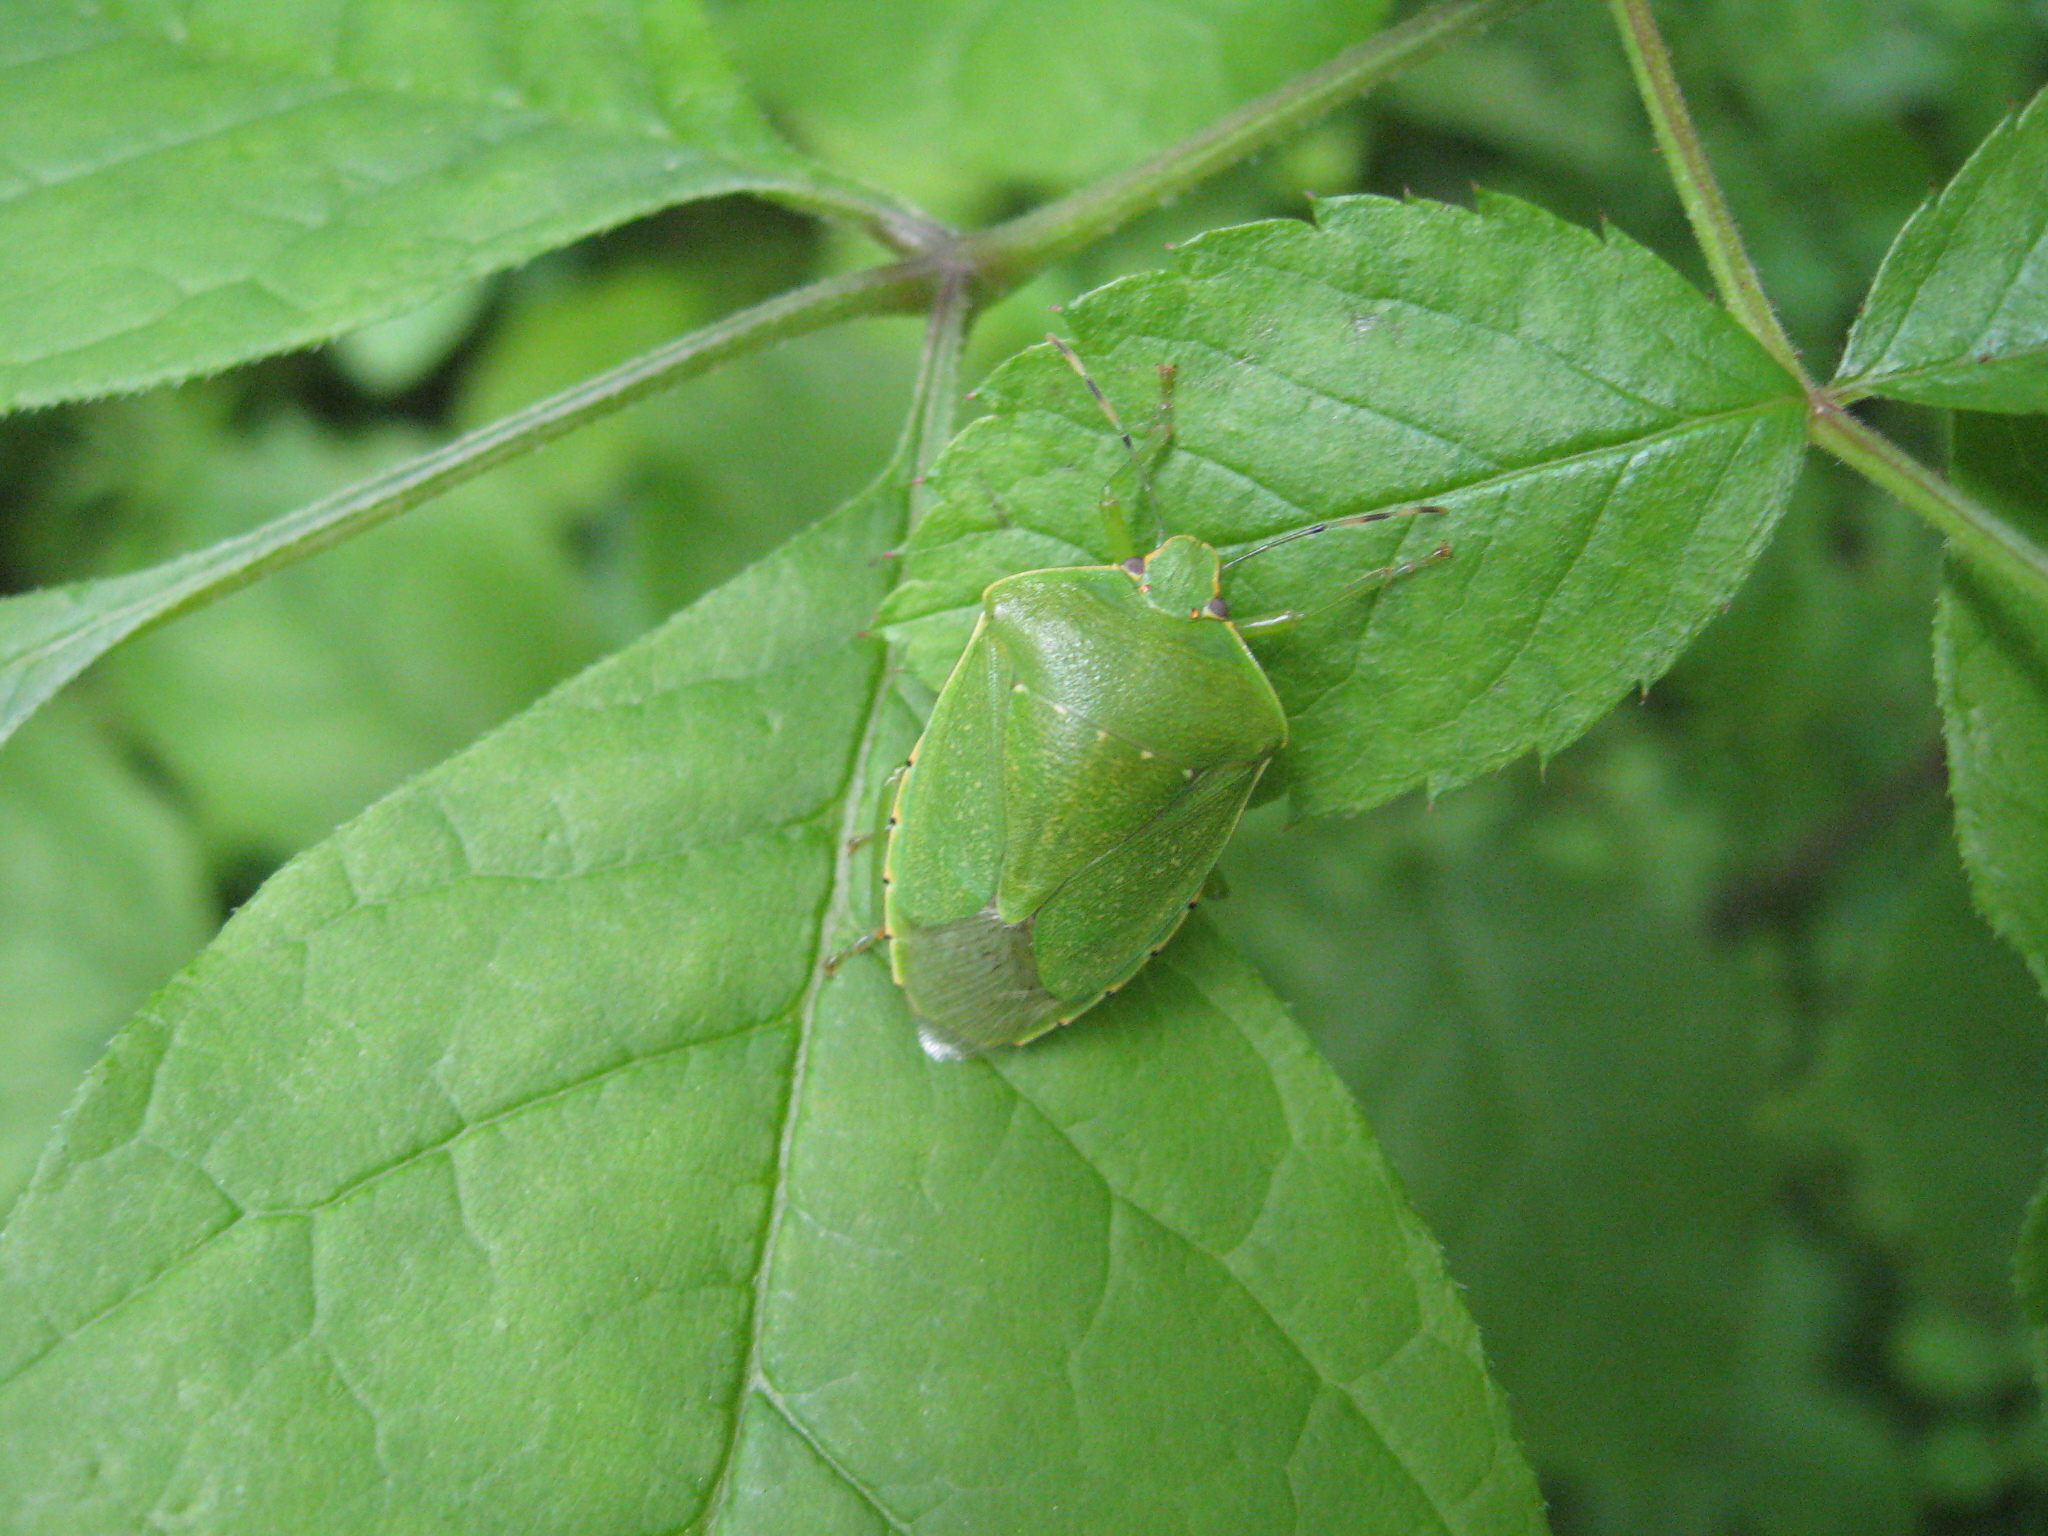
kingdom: Animalia
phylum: Arthropoda
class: Insecta
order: Hemiptera
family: Pentatomidae
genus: Chinavia
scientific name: Chinavia hilaris
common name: Green stink bug
